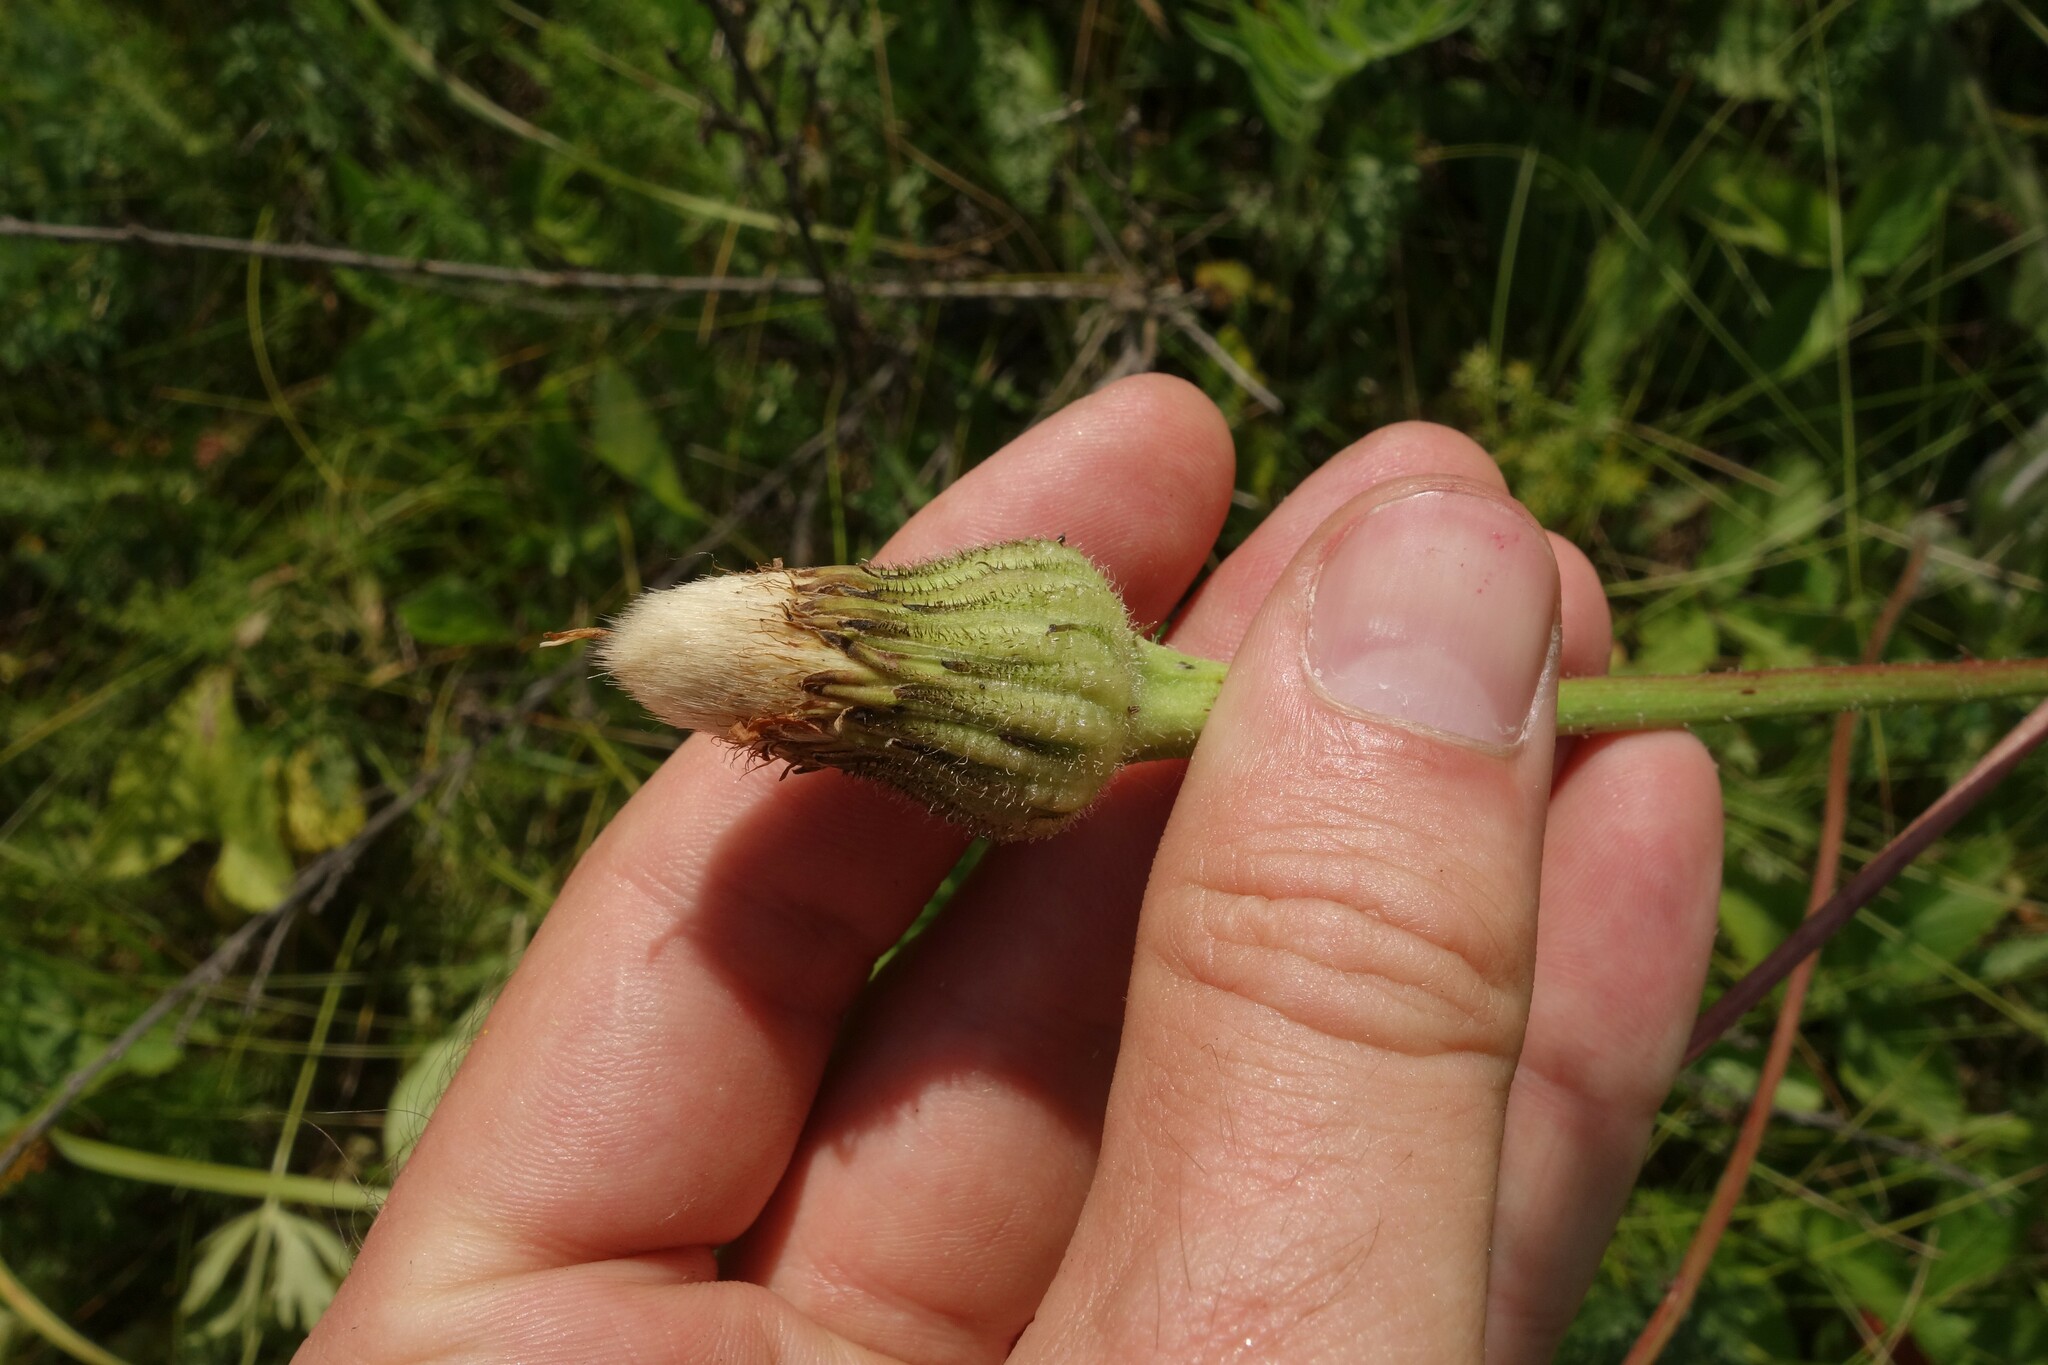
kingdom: Plantae
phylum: Tracheophyta
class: Magnoliopsida
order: Asterales
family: Asteraceae
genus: Trommsdorffia
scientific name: Trommsdorffia maculata
